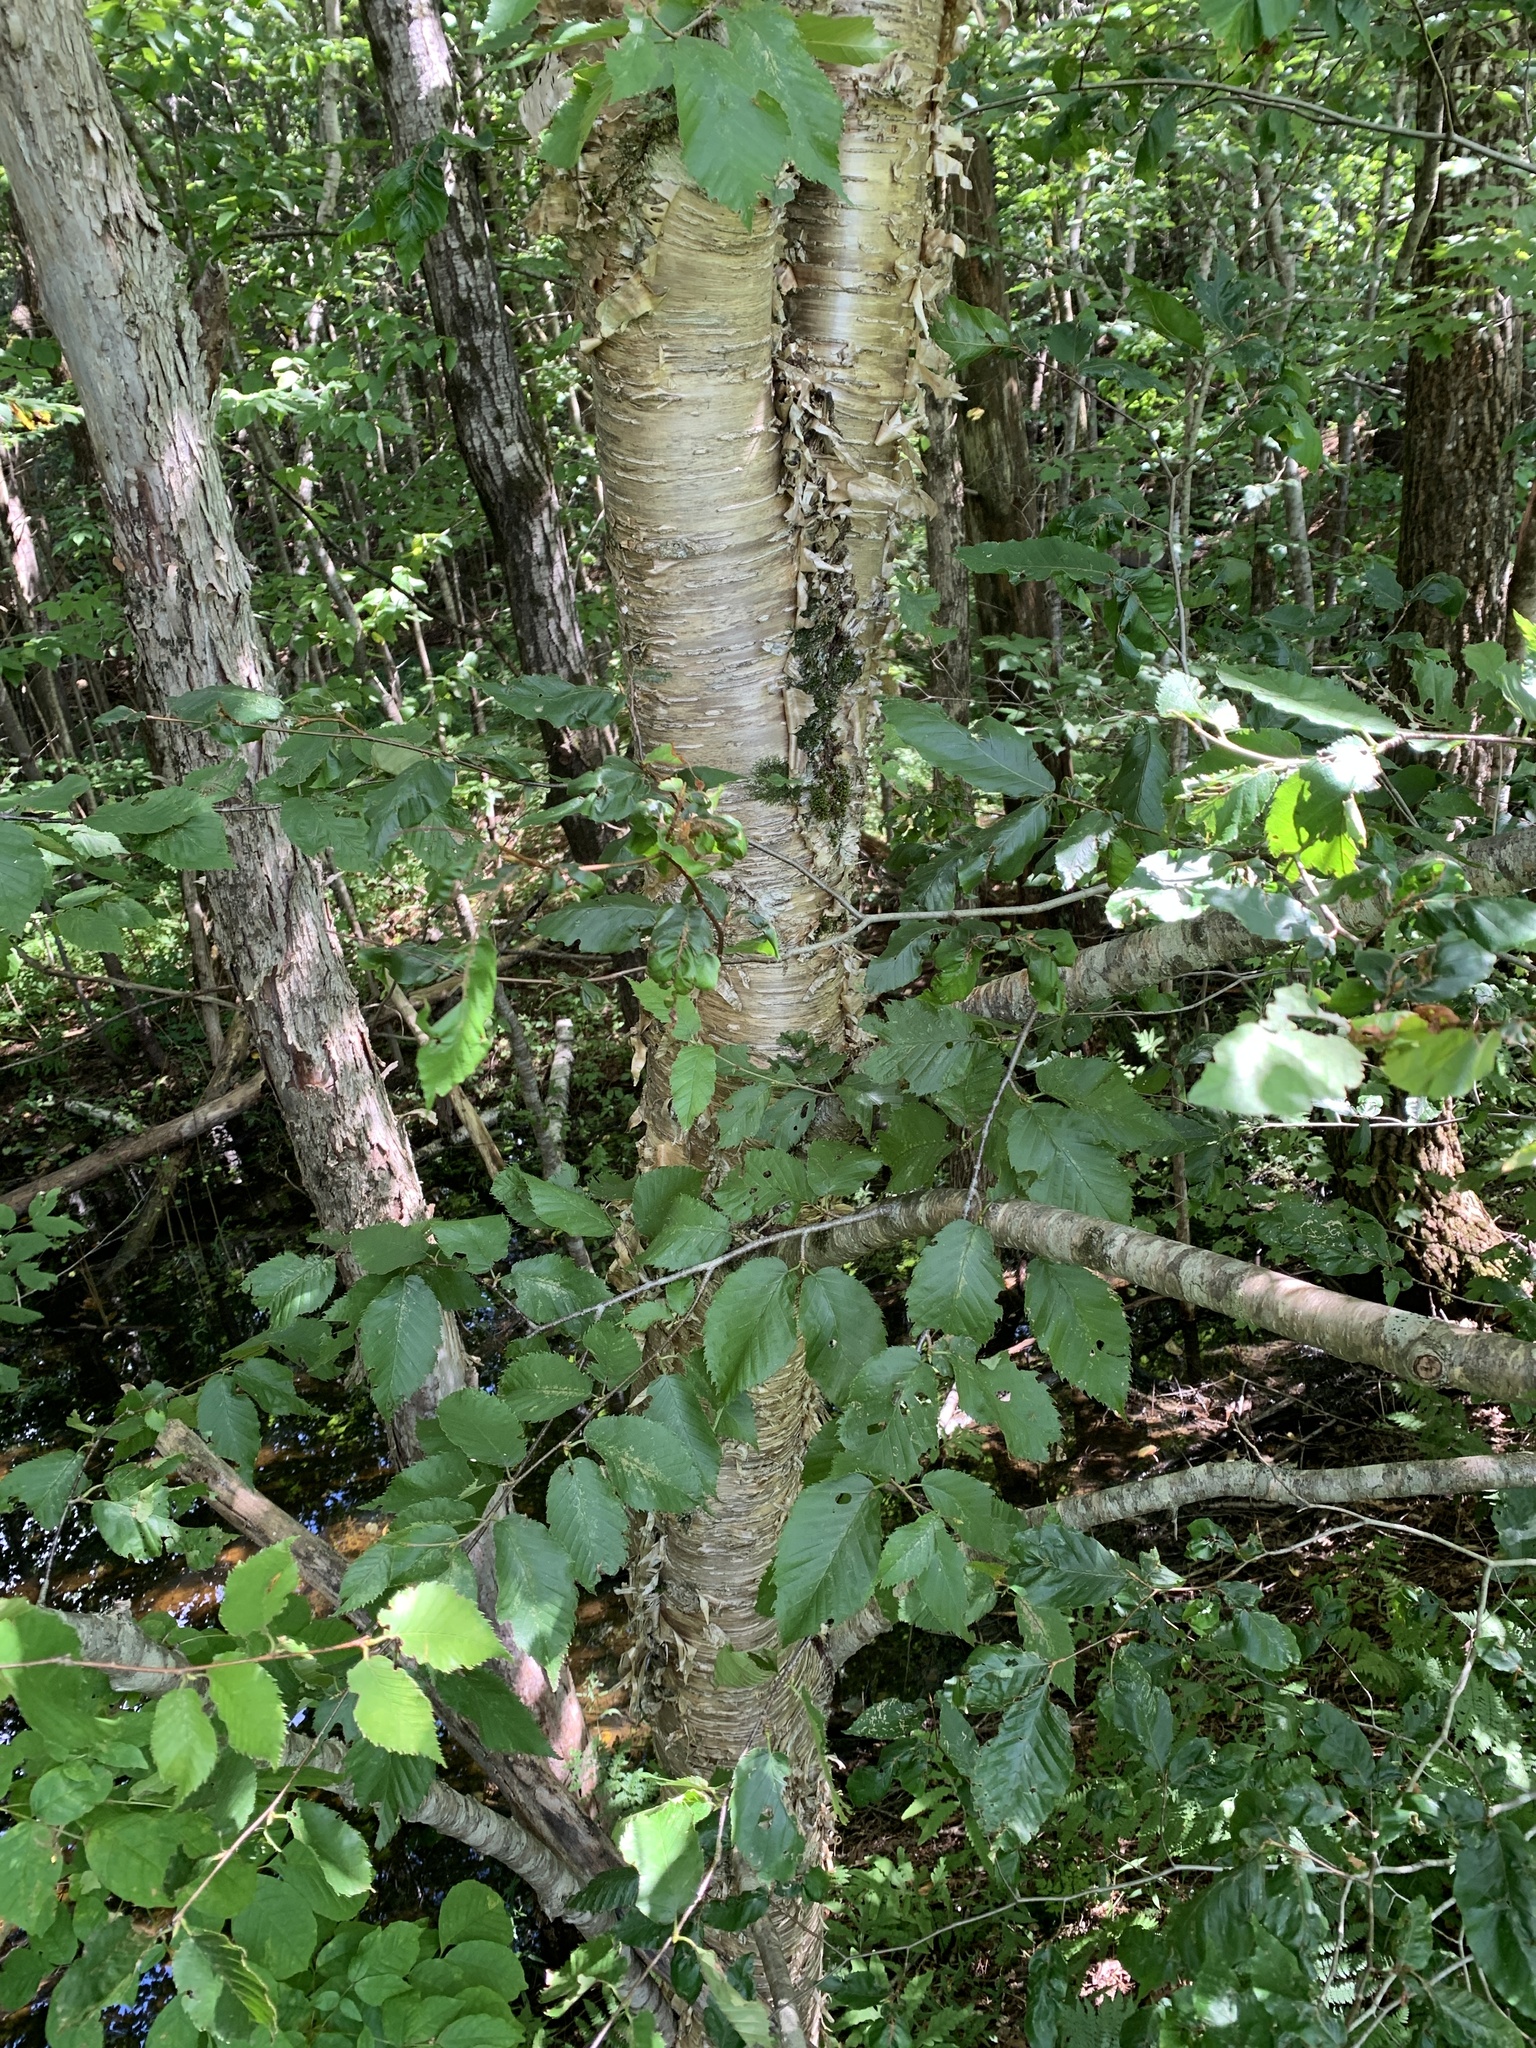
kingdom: Plantae
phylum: Tracheophyta
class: Magnoliopsida
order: Fagales
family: Betulaceae
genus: Betula
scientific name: Betula alleghaniensis
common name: Yellow birch
